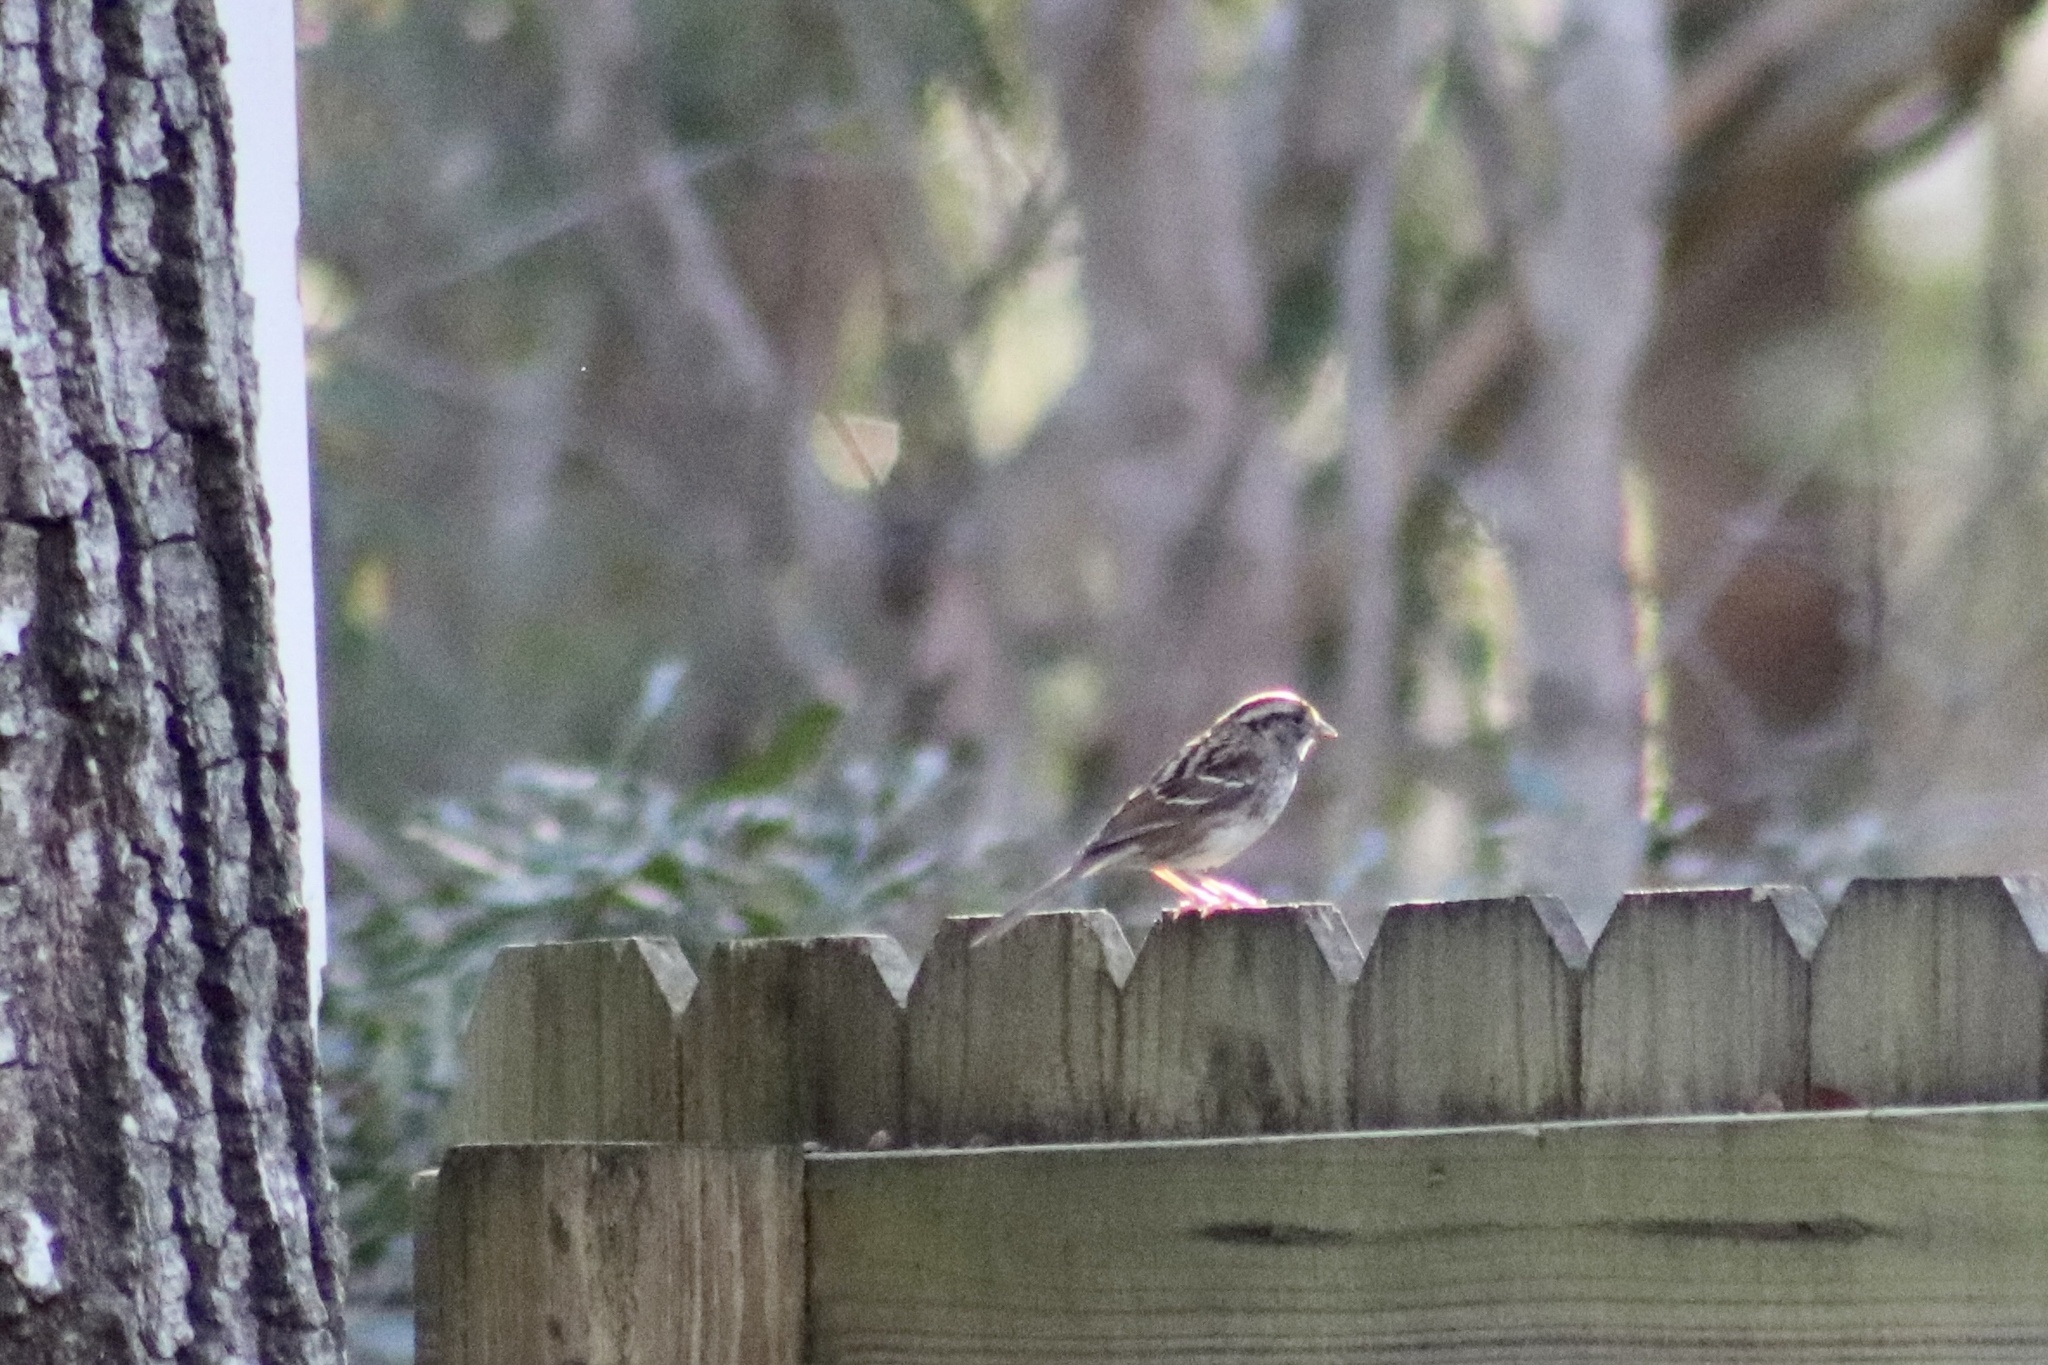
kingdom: Animalia
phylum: Chordata
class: Aves
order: Passeriformes
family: Passerellidae
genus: Zonotrichia
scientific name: Zonotrichia albicollis
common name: White-throated sparrow
